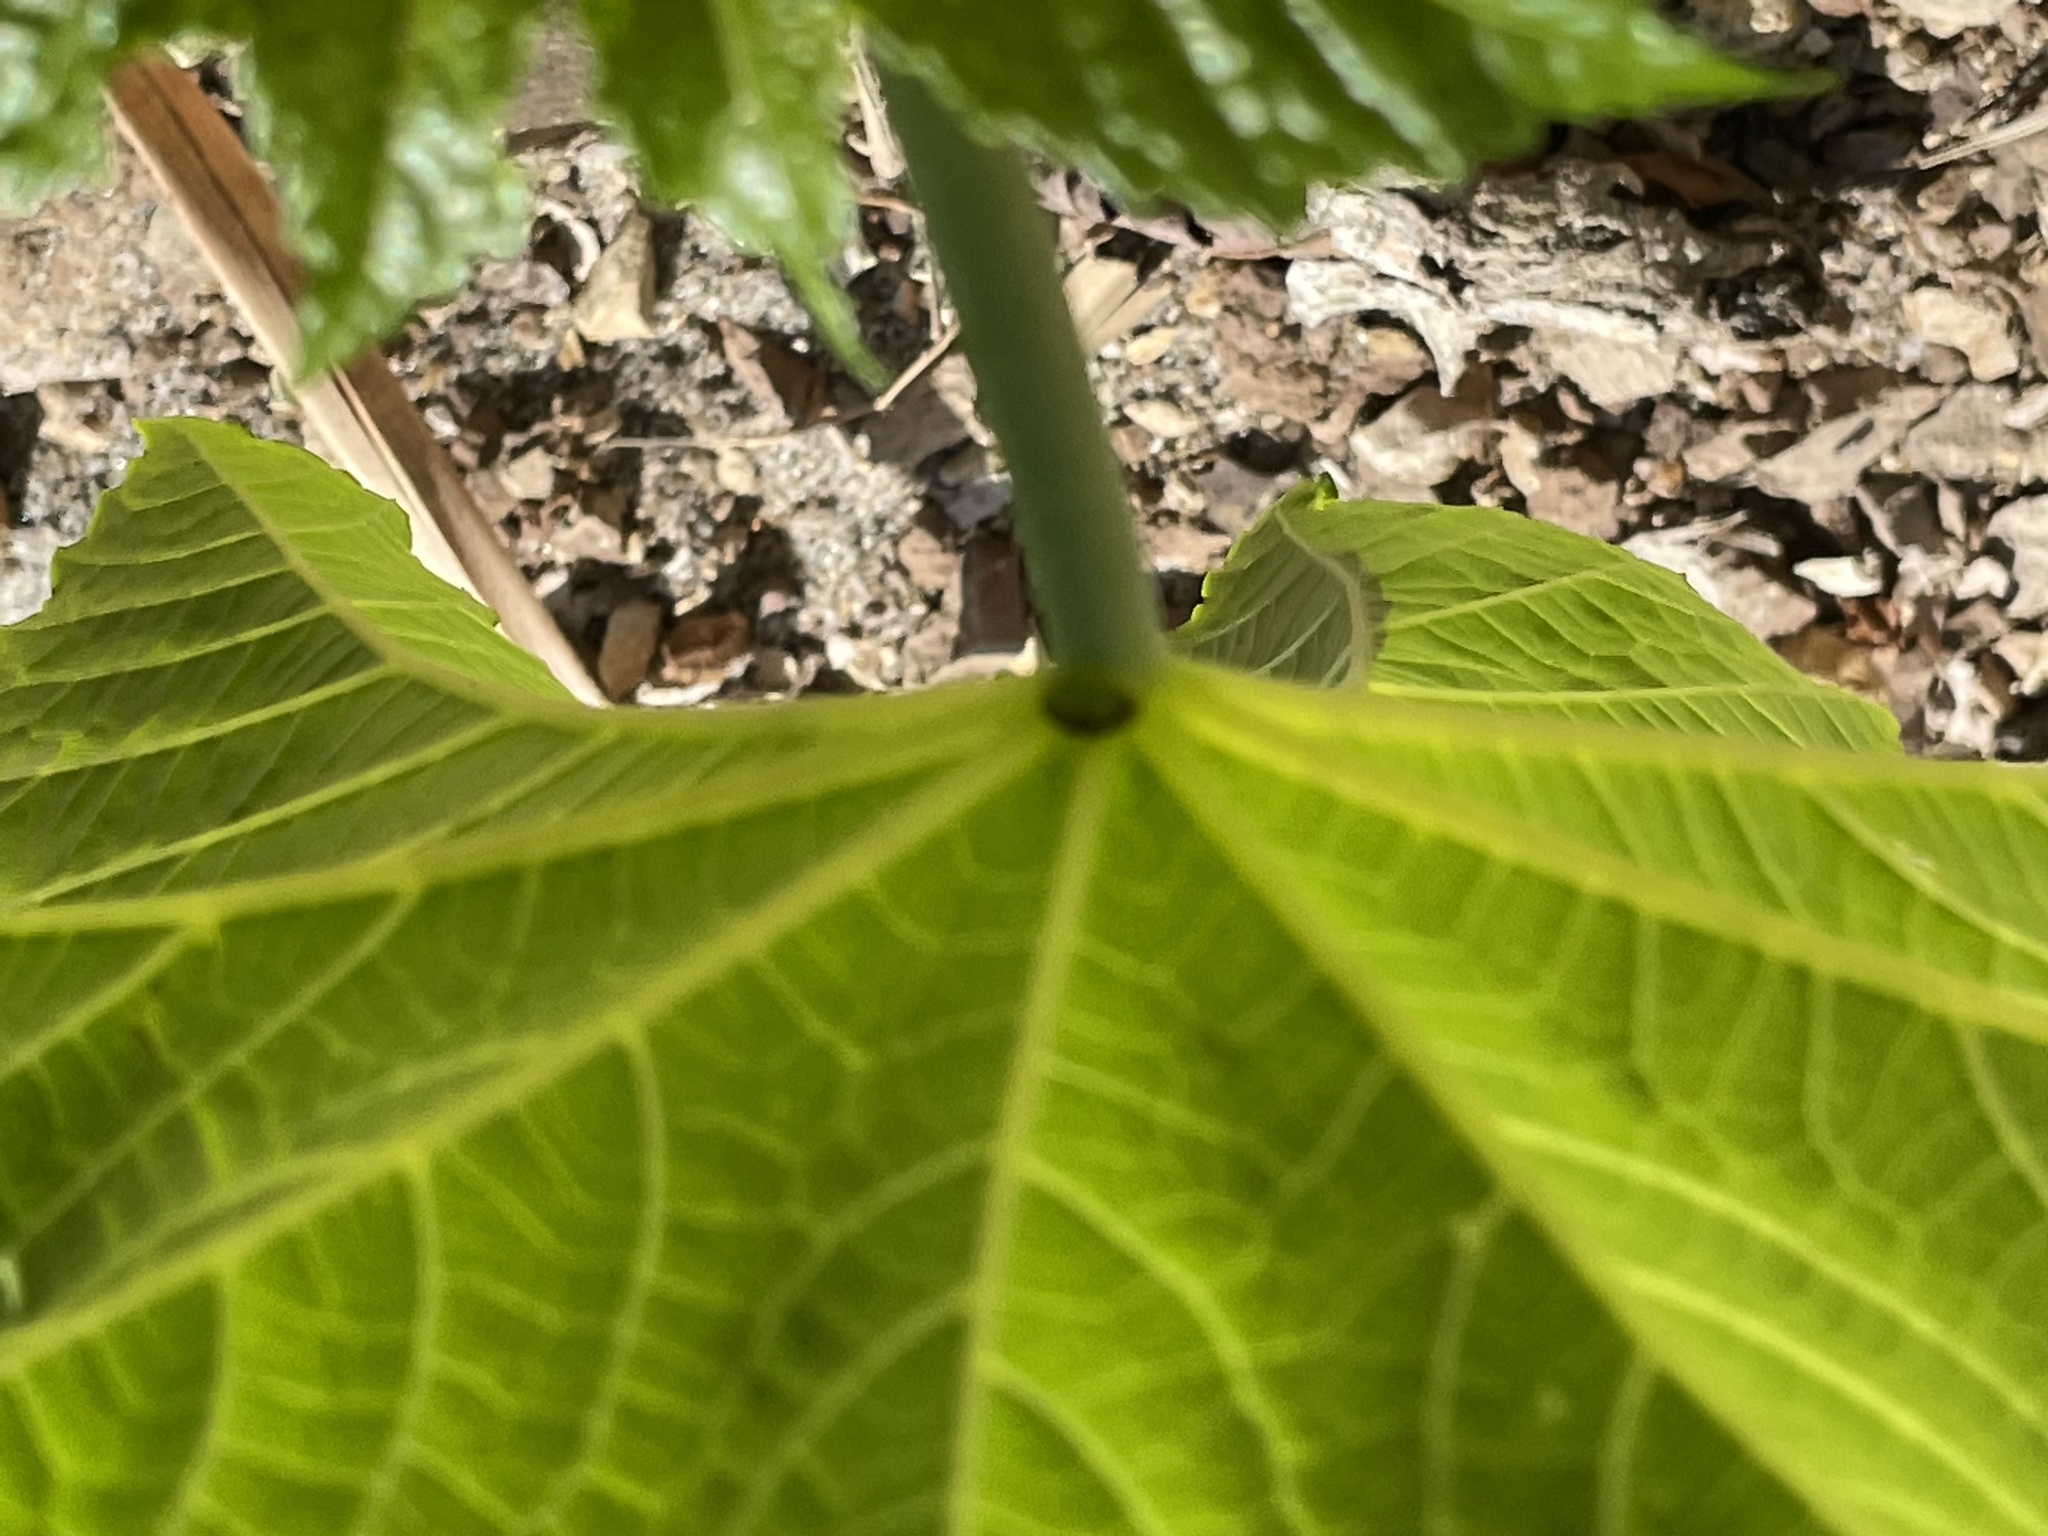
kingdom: Plantae
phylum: Tracheophyta
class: Magnoliopsida
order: Malpighiales
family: Euphorbiaceae
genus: Ricinus
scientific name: Ricinus communis
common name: Castor-oil-plant
